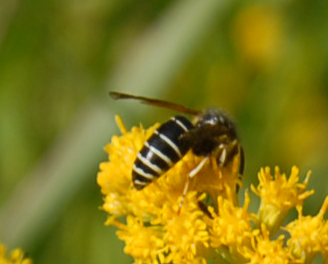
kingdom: Animalia
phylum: Arthropoda
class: Insecta
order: Hymenoptera
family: Vespidae
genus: Vespula
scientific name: Vespula consobrina
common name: Blackjacket
